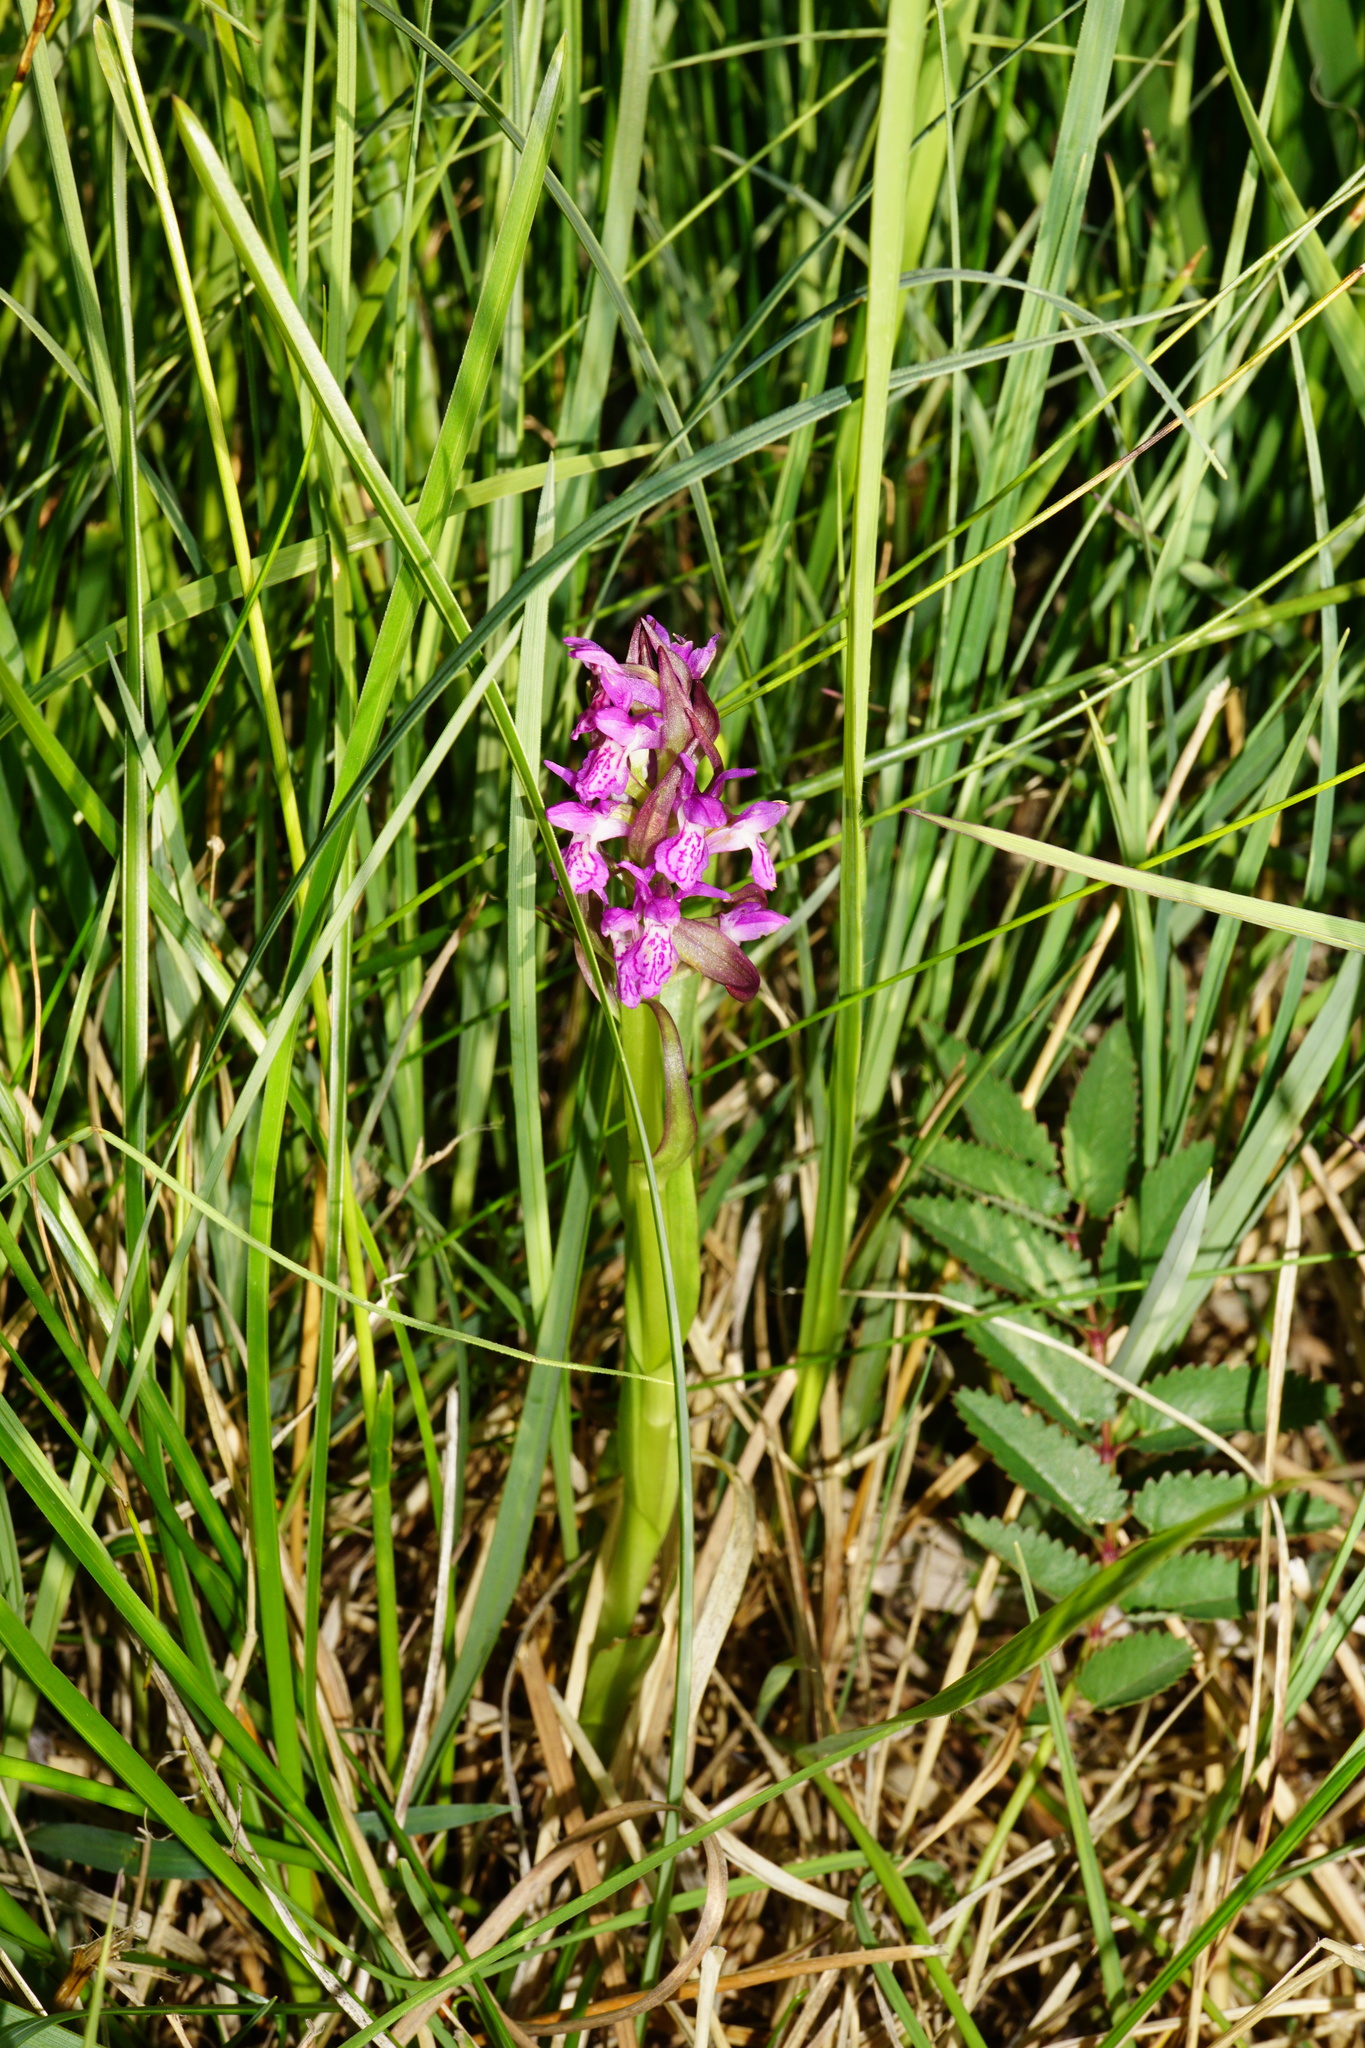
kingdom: Plantae
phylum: Tracheophyta
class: Liliopsida
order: Asparagales
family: Orchidaceae
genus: Dactylorhiza
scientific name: Dactylorhiza incarnata
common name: Early marsh-orchid
